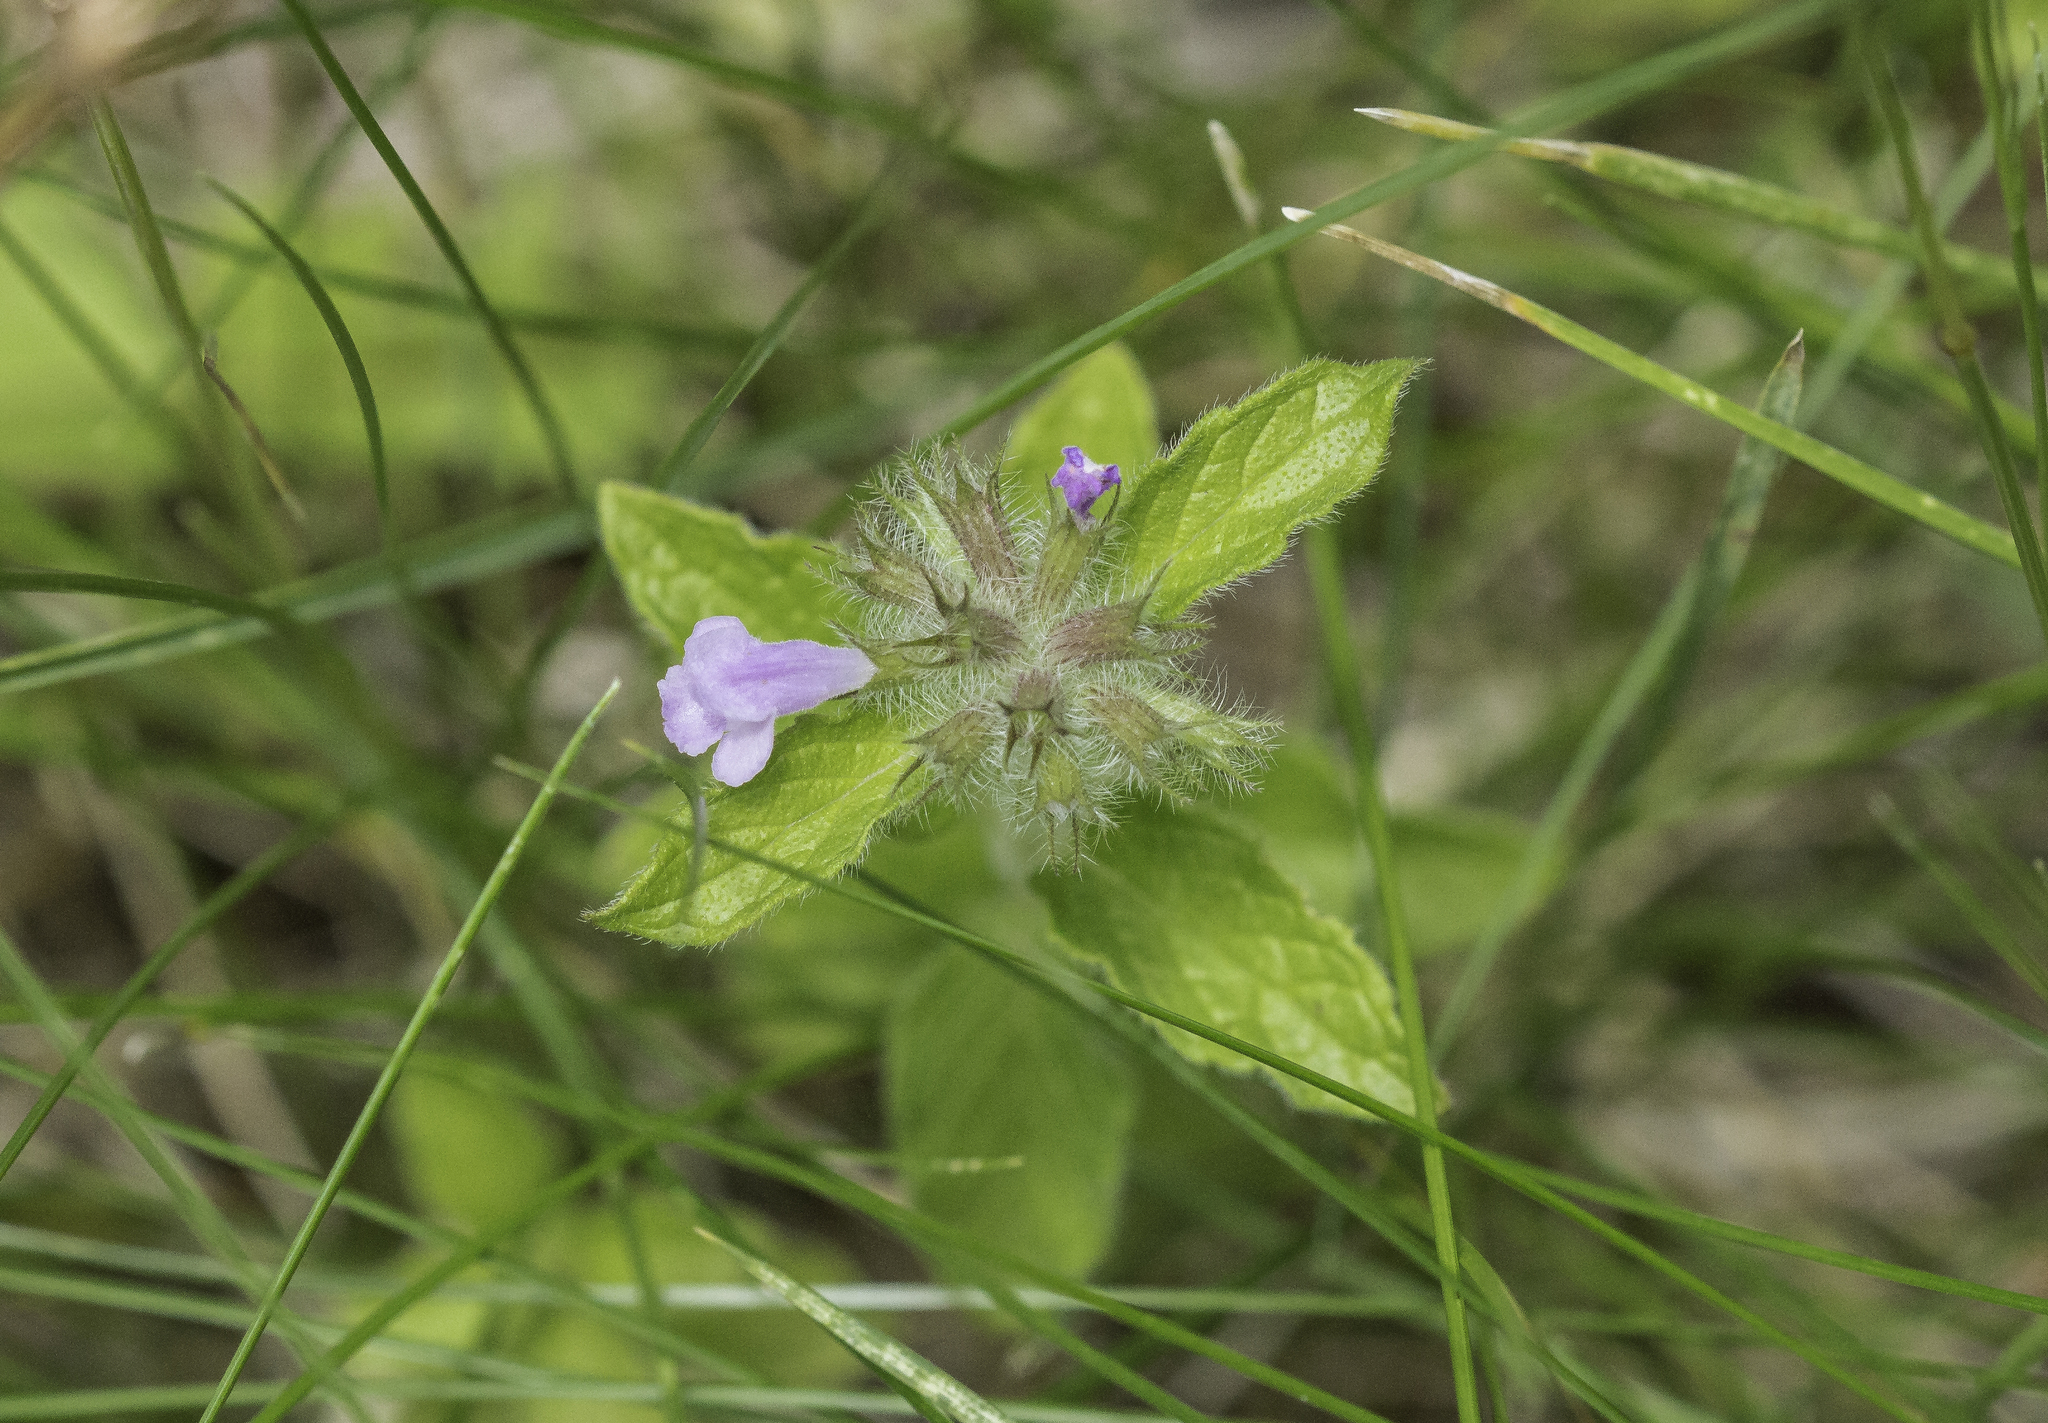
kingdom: Plantae
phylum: Tracheophyta
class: Magnoliopsida
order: Lamiales
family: Lamiaceae
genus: Clinopodium
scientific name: Clinopodium vulgare
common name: Wild basil
